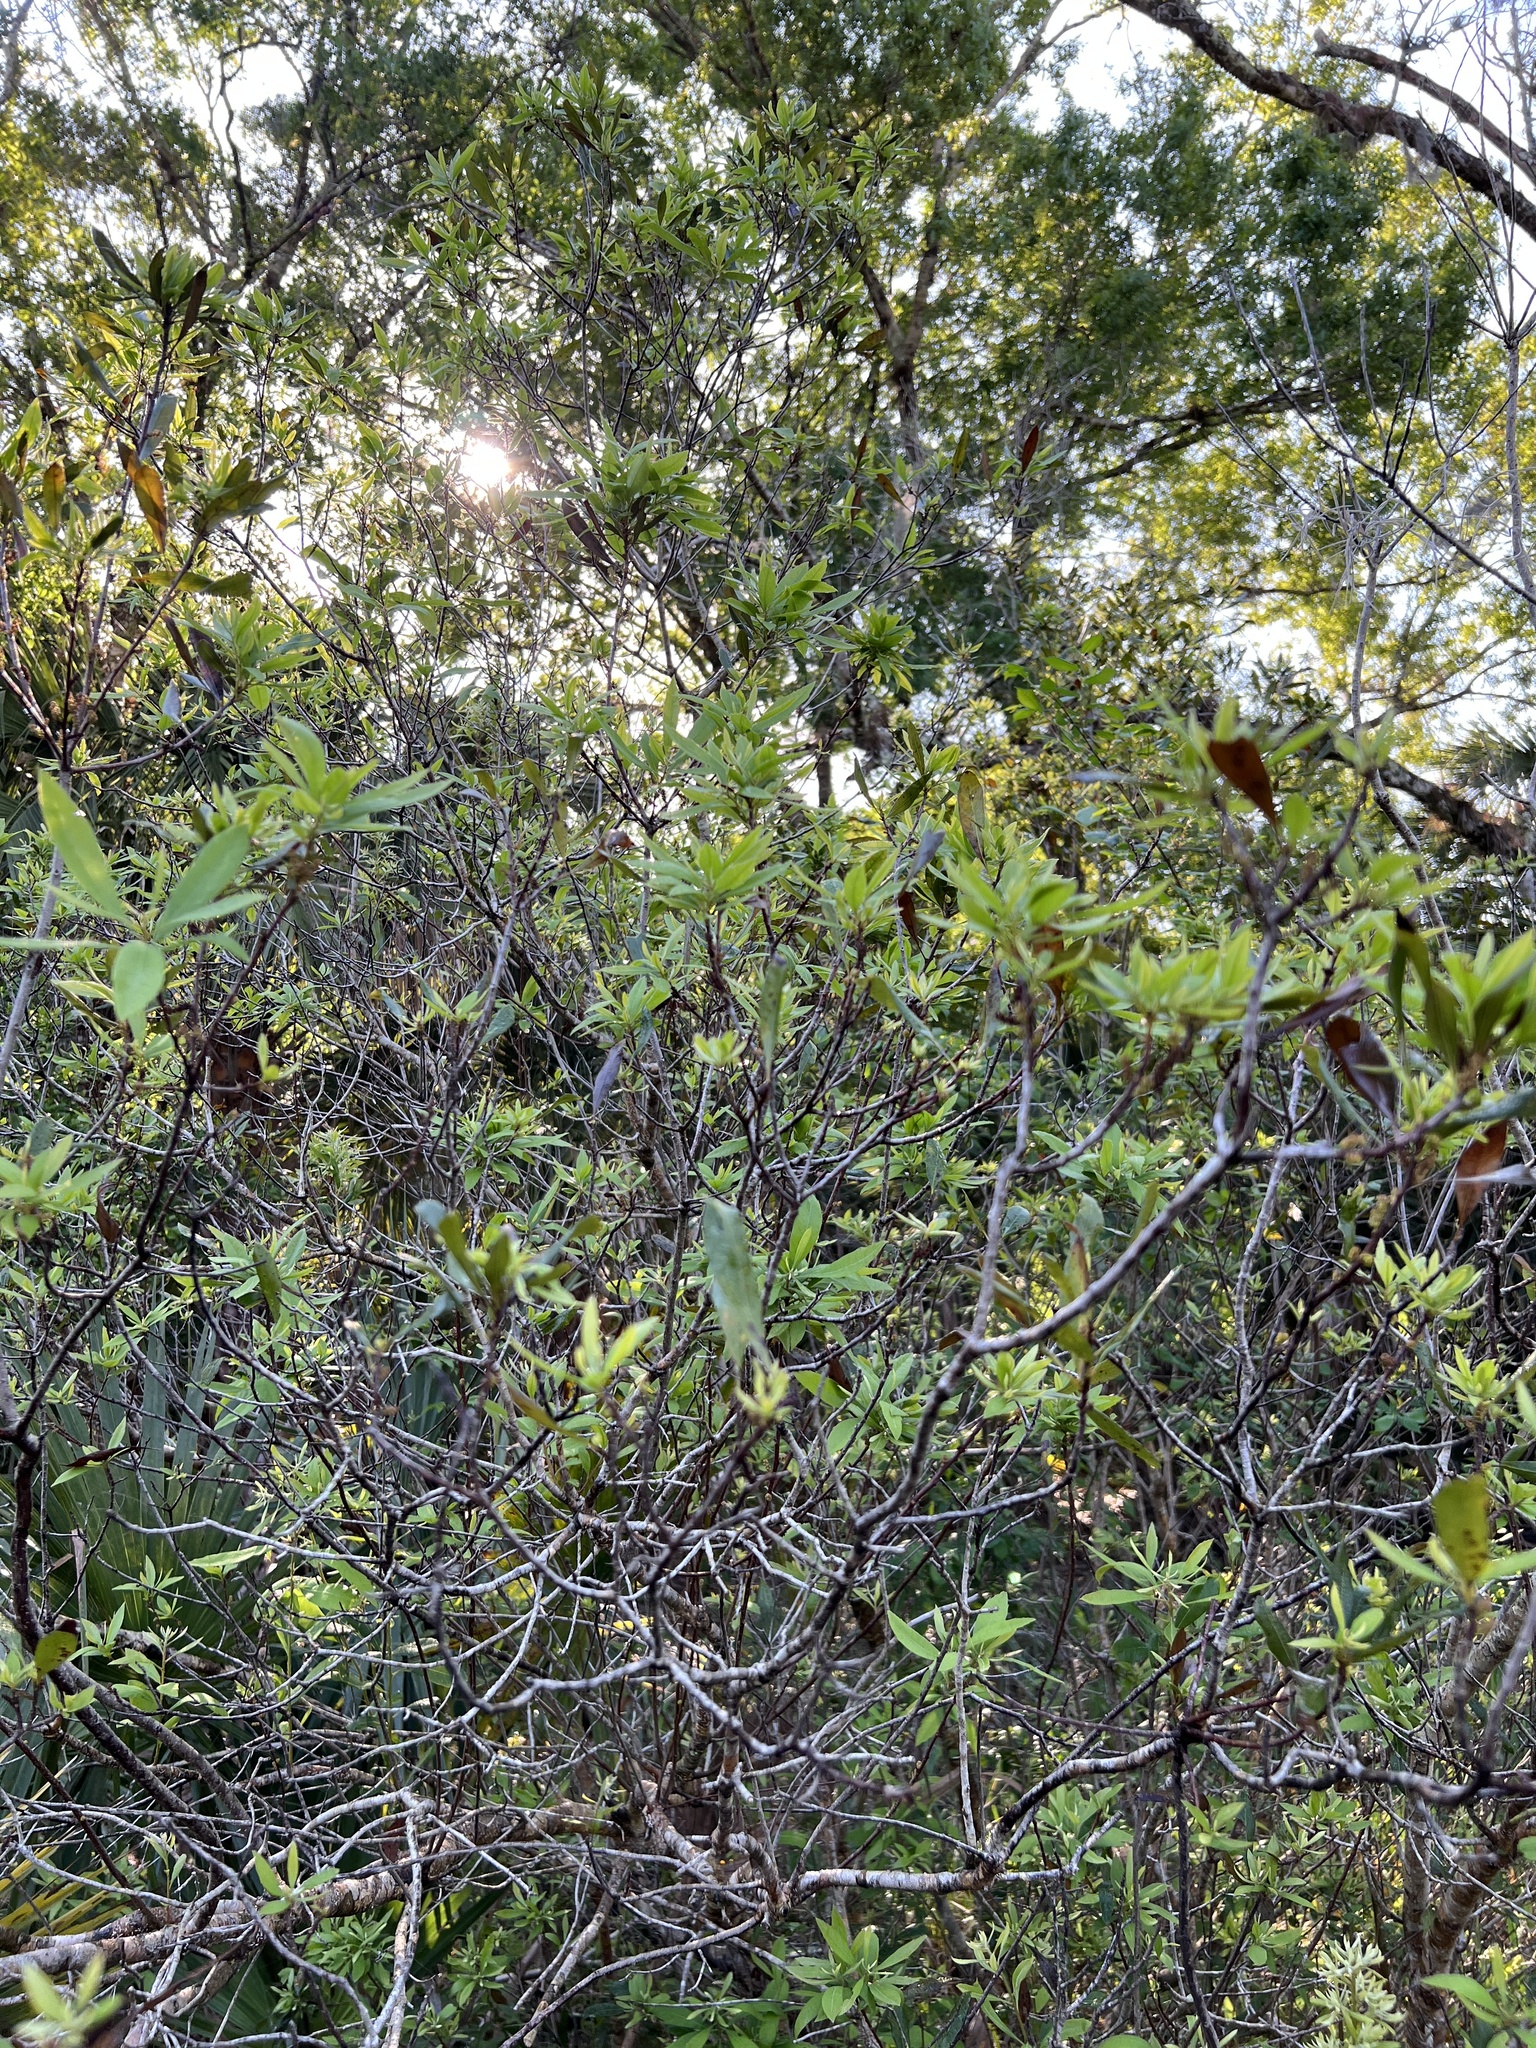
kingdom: Plantae
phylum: Tracheophyta
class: Magnoliopsida
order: Fagales
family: Myricaceae
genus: Morella
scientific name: Morella cerifera
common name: Wax myrtle
